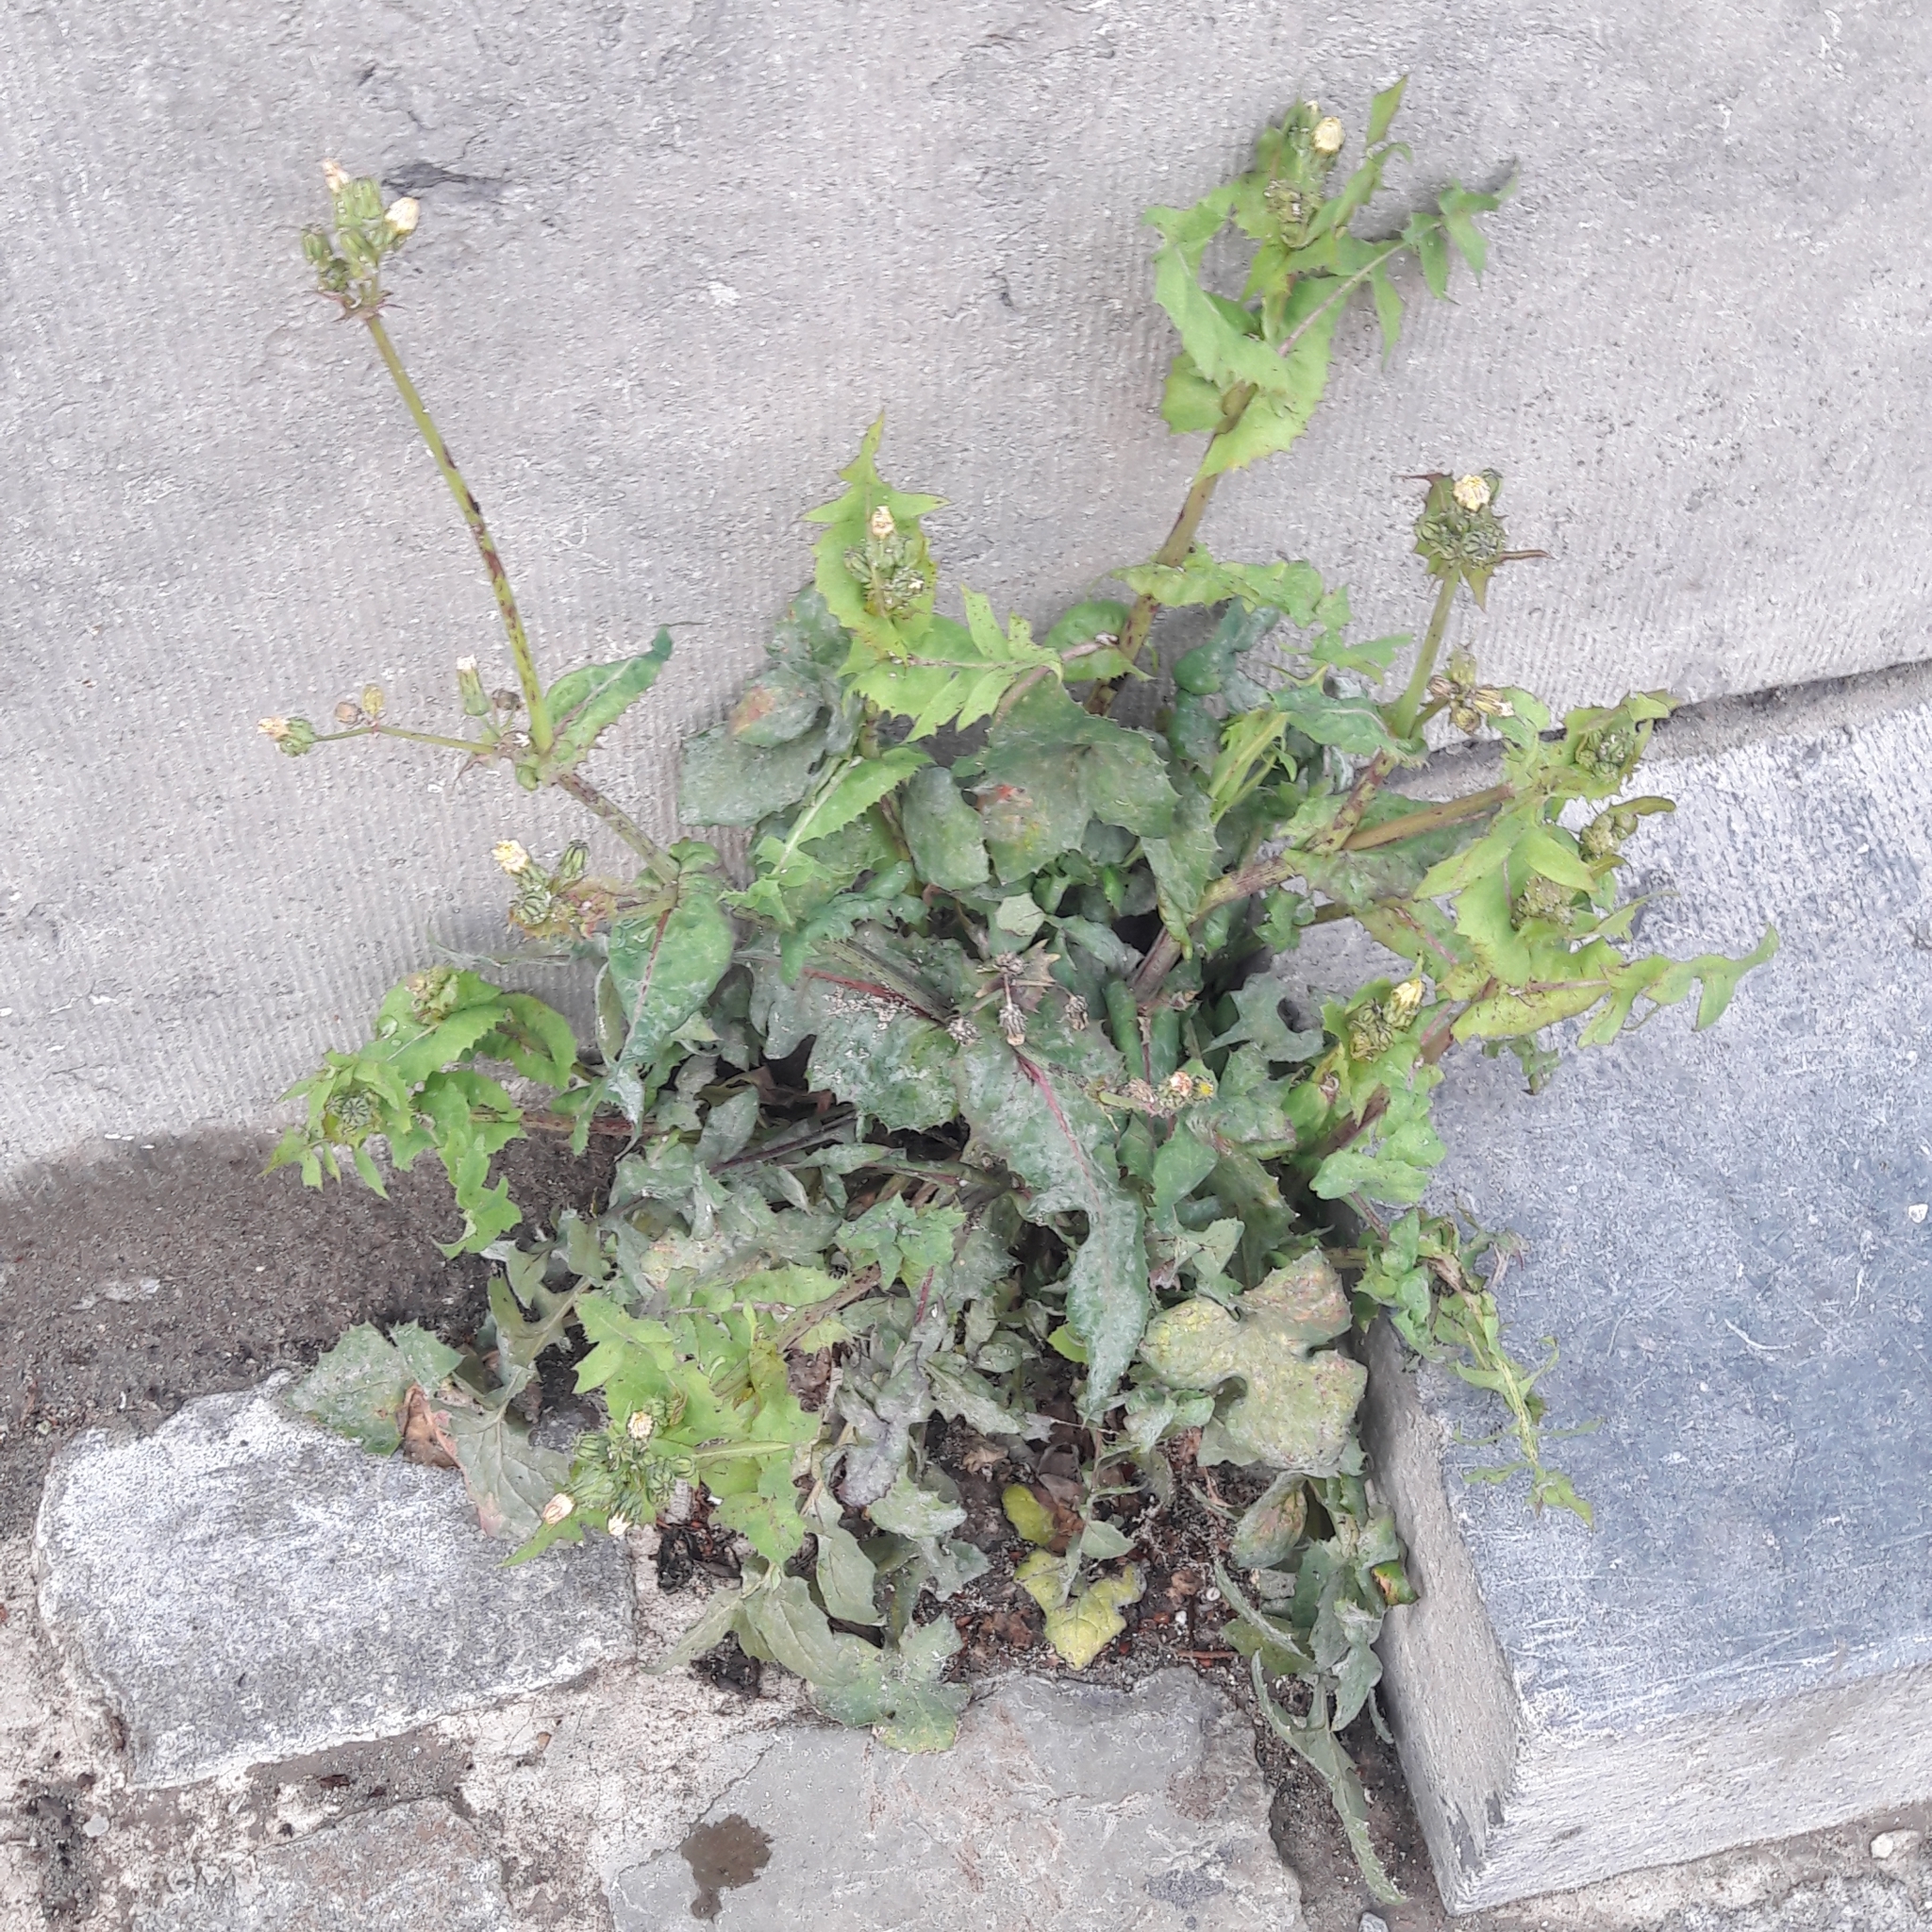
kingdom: Plantae
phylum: Tracheophyta
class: Magnoliopsida
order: Asterales
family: Asteraceae
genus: Sonchus
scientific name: Sonchus oleraceus
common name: Common sowthistle
